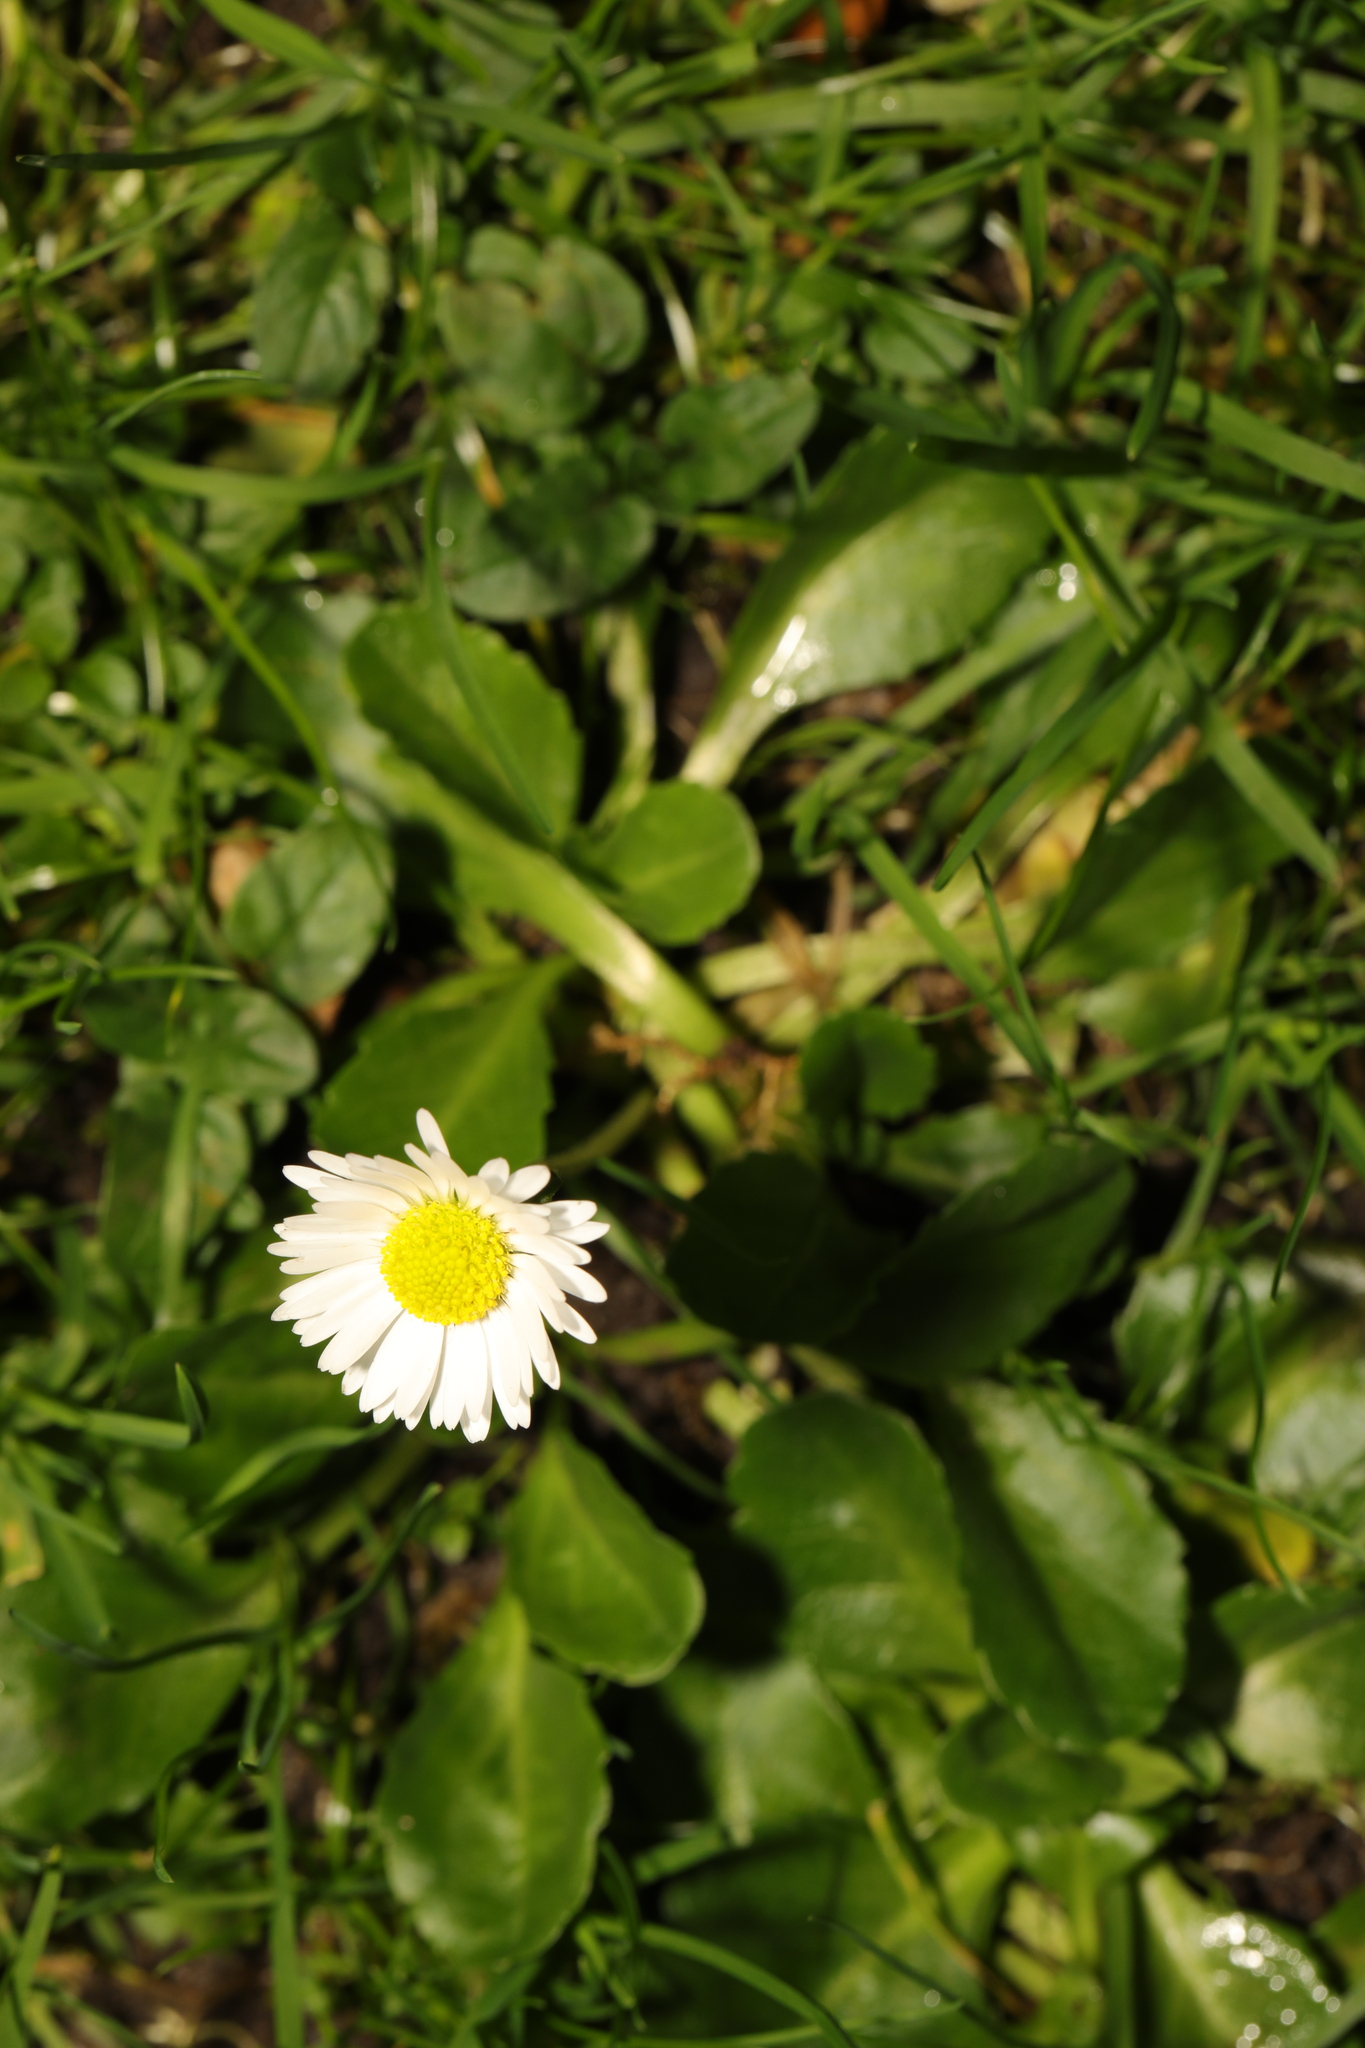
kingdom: Plantae
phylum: Tracheophyta
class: Magnoliopsida
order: Asterales
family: Asteraceae
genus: Bellis
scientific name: Bellis perennis
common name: Lawndaisy
